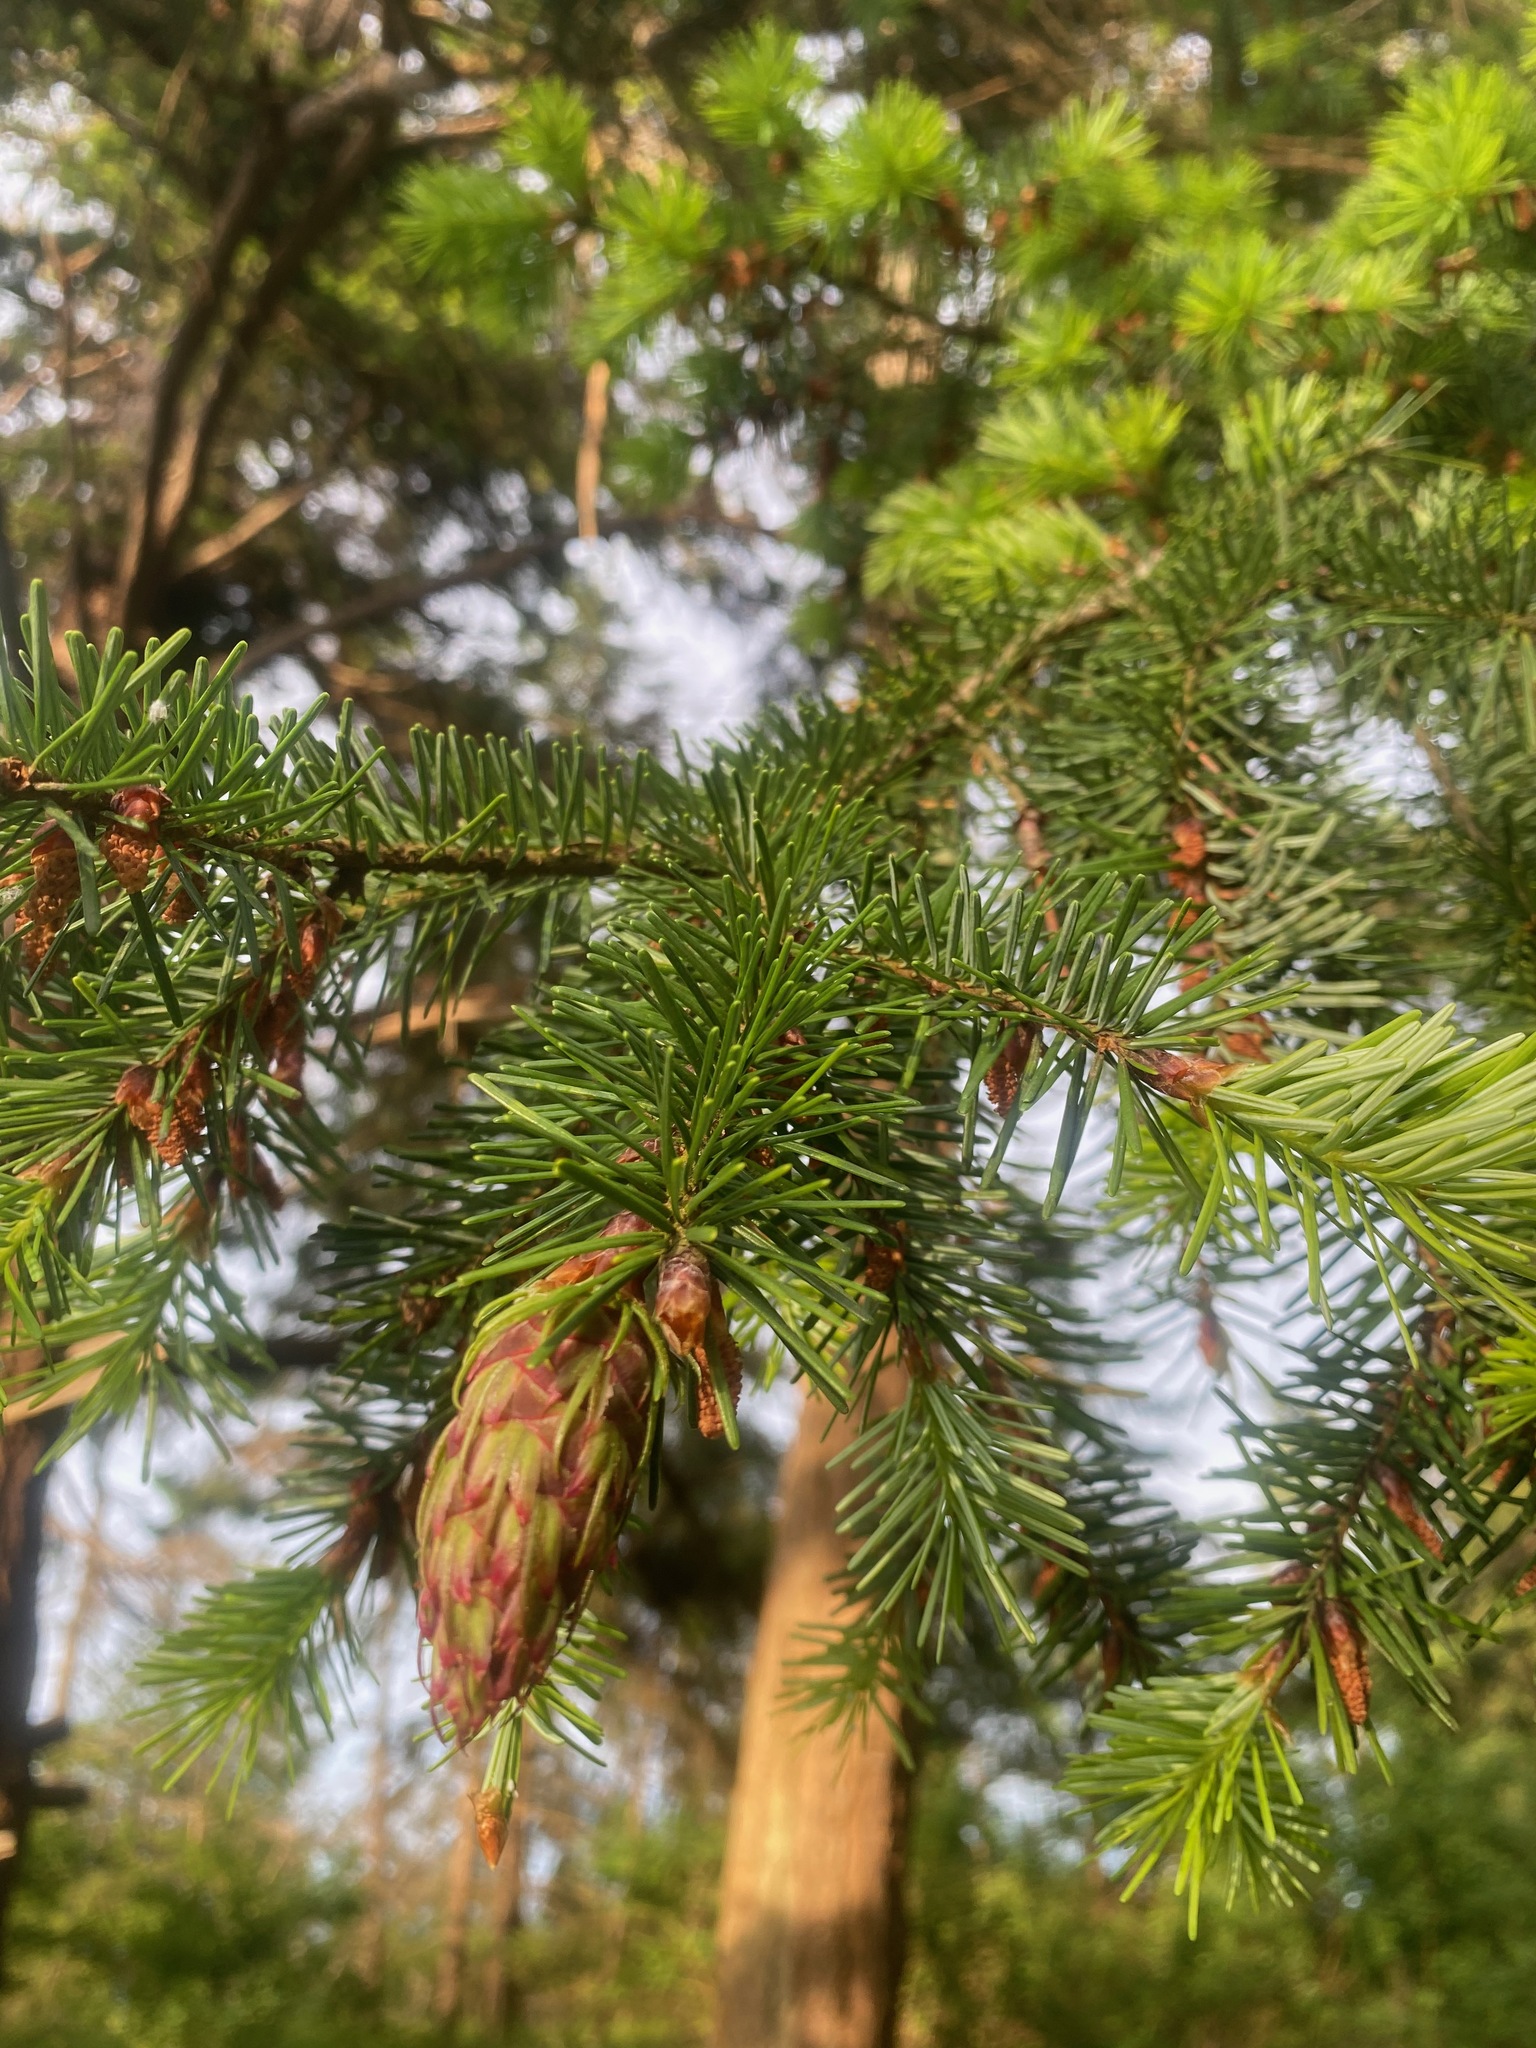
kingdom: Plantae
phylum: Tracheophyta
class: Pinopsida
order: Pinales
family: Pinaceae
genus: Pseudotsuga
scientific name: Pseudotsuga menziesii
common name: Douglas fir
